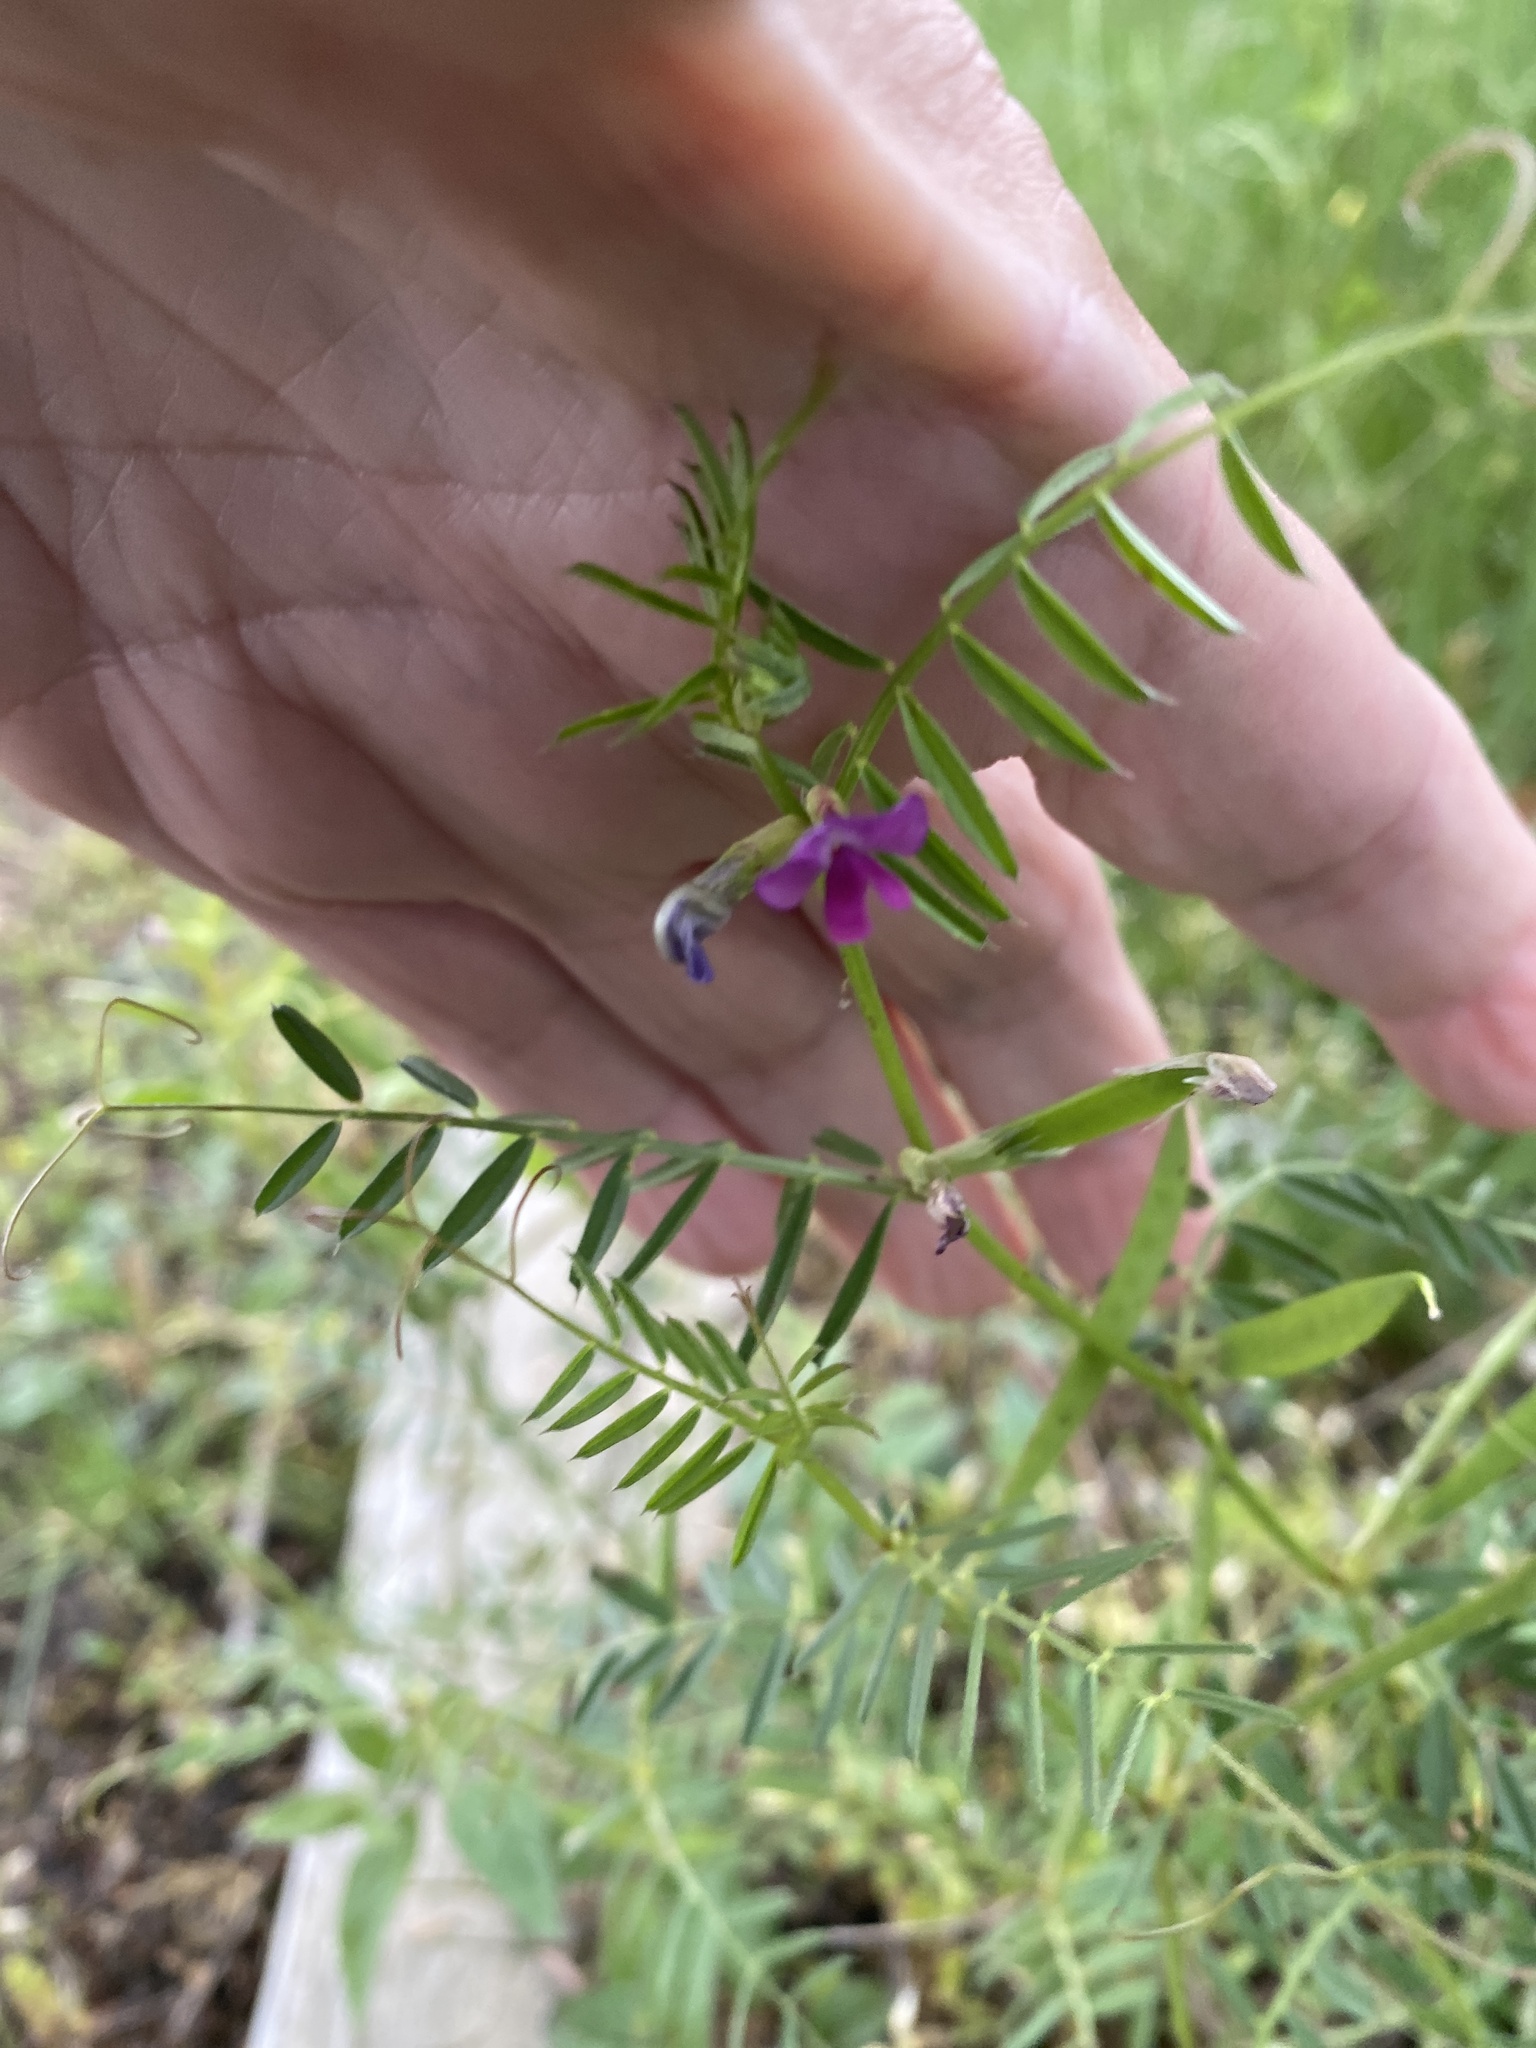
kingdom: Plantae
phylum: Tracheophyta
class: Magnoliopsida
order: Fabales
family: Fabaceae
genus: Vicia
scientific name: Vicia sativa
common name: Garden vetch
